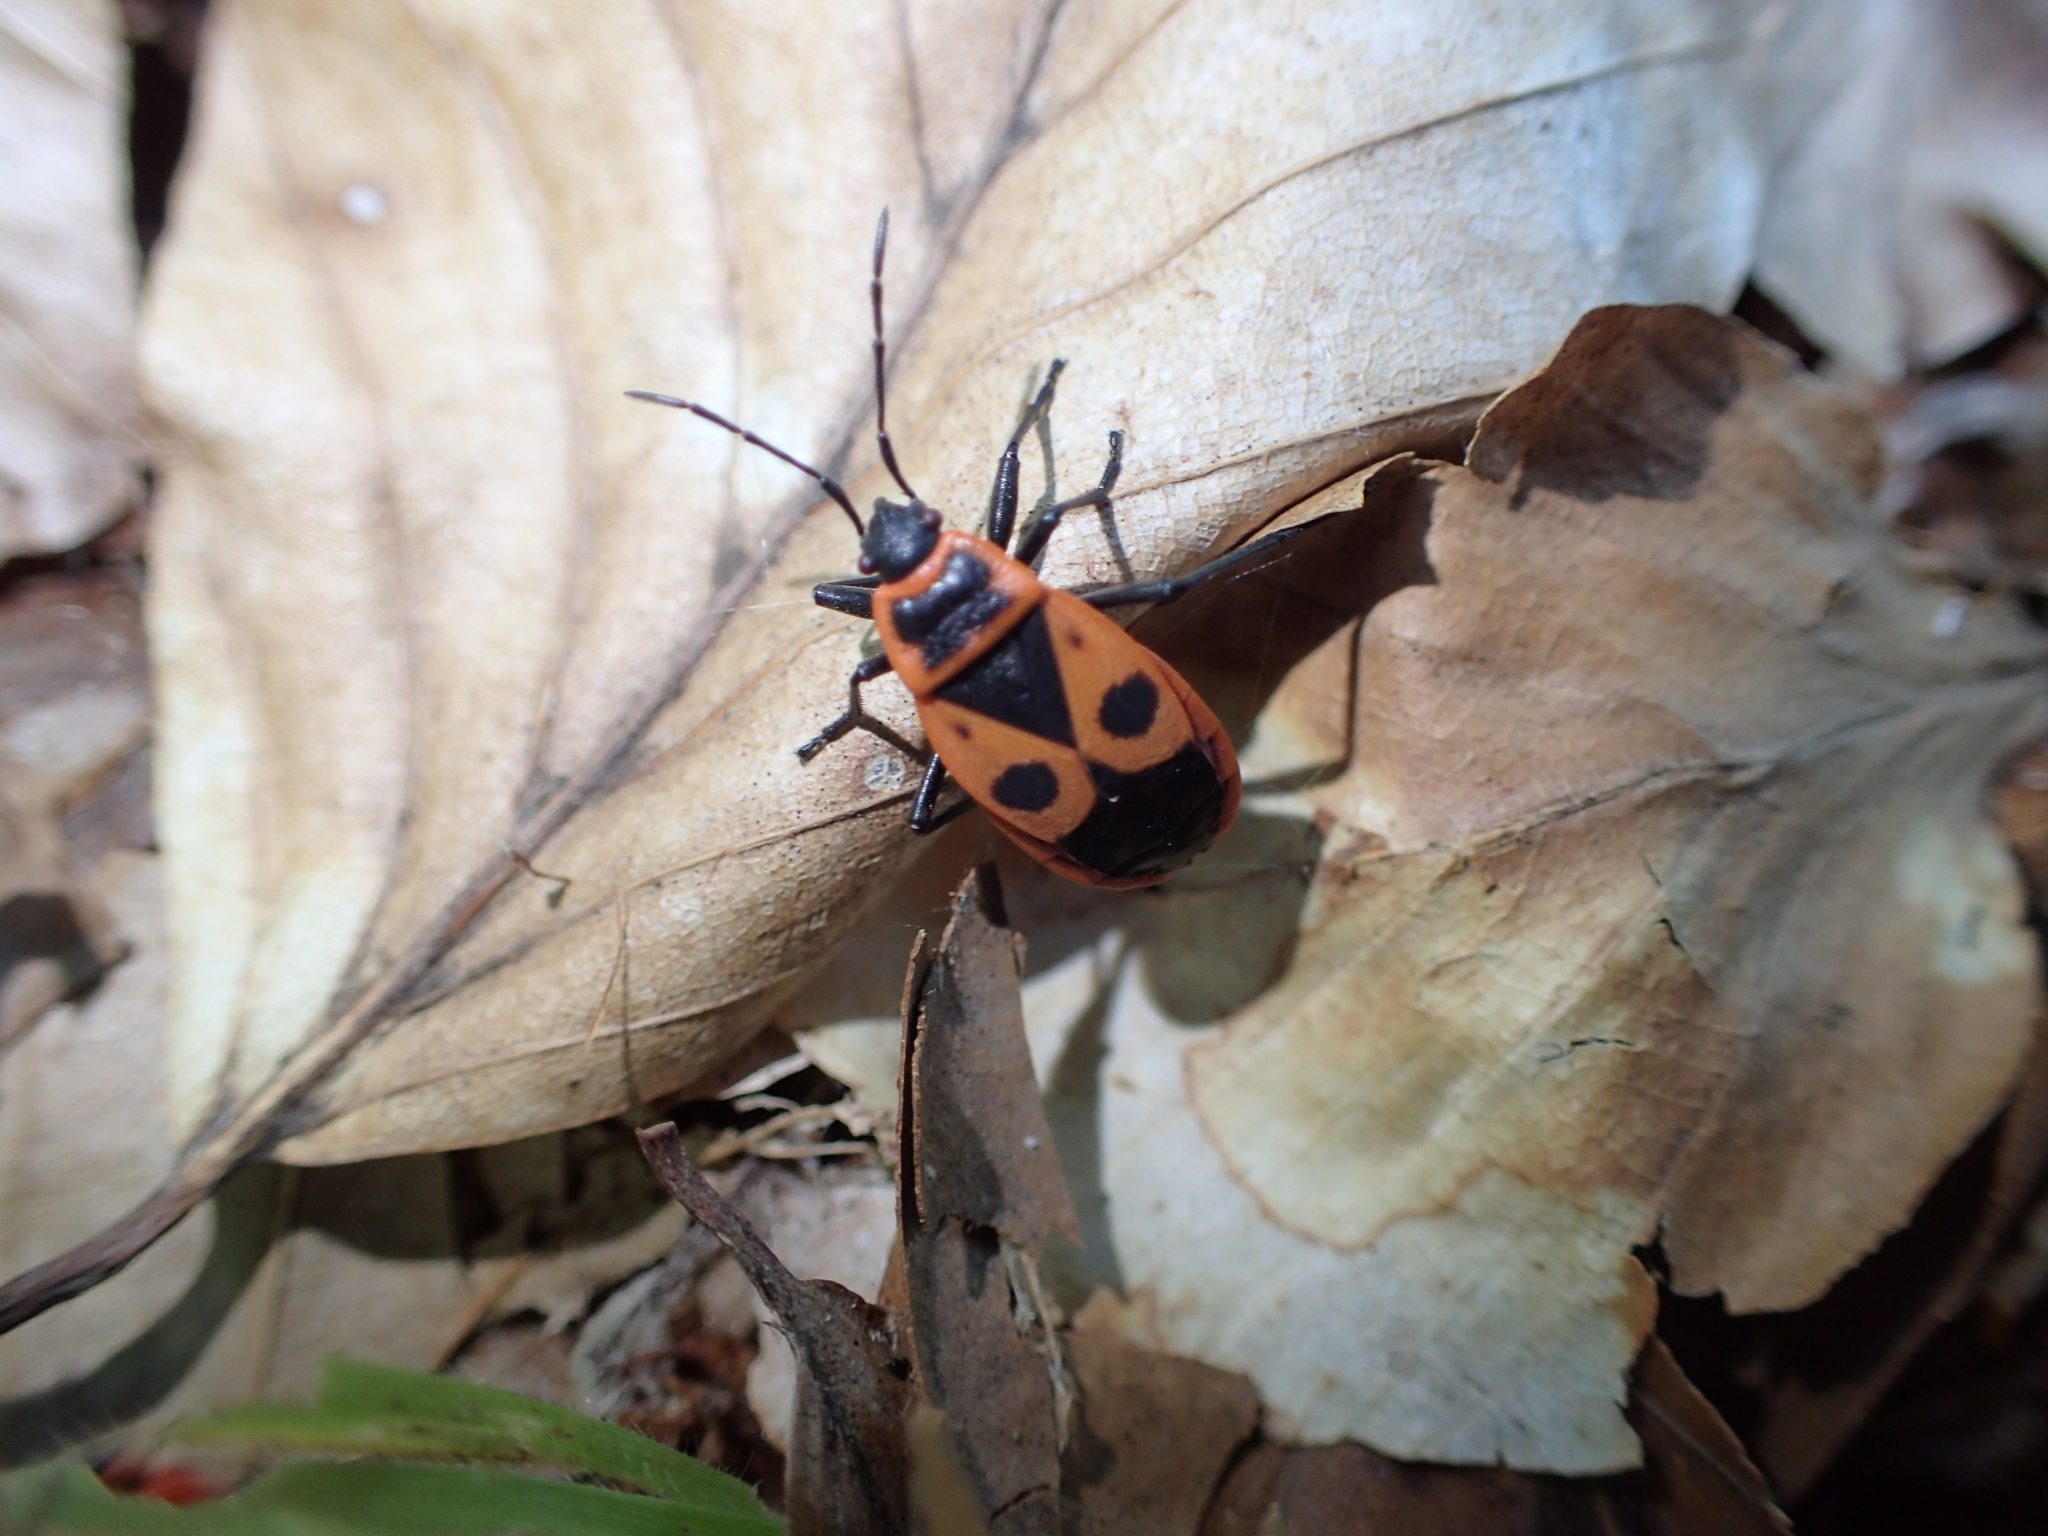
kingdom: Animalia
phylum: Arthropoda
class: Insecta
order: Hemiptera
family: Pyrrhocoridae
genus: Pyrrhocoris
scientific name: Pyrrhocoris apterus
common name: Firebug
